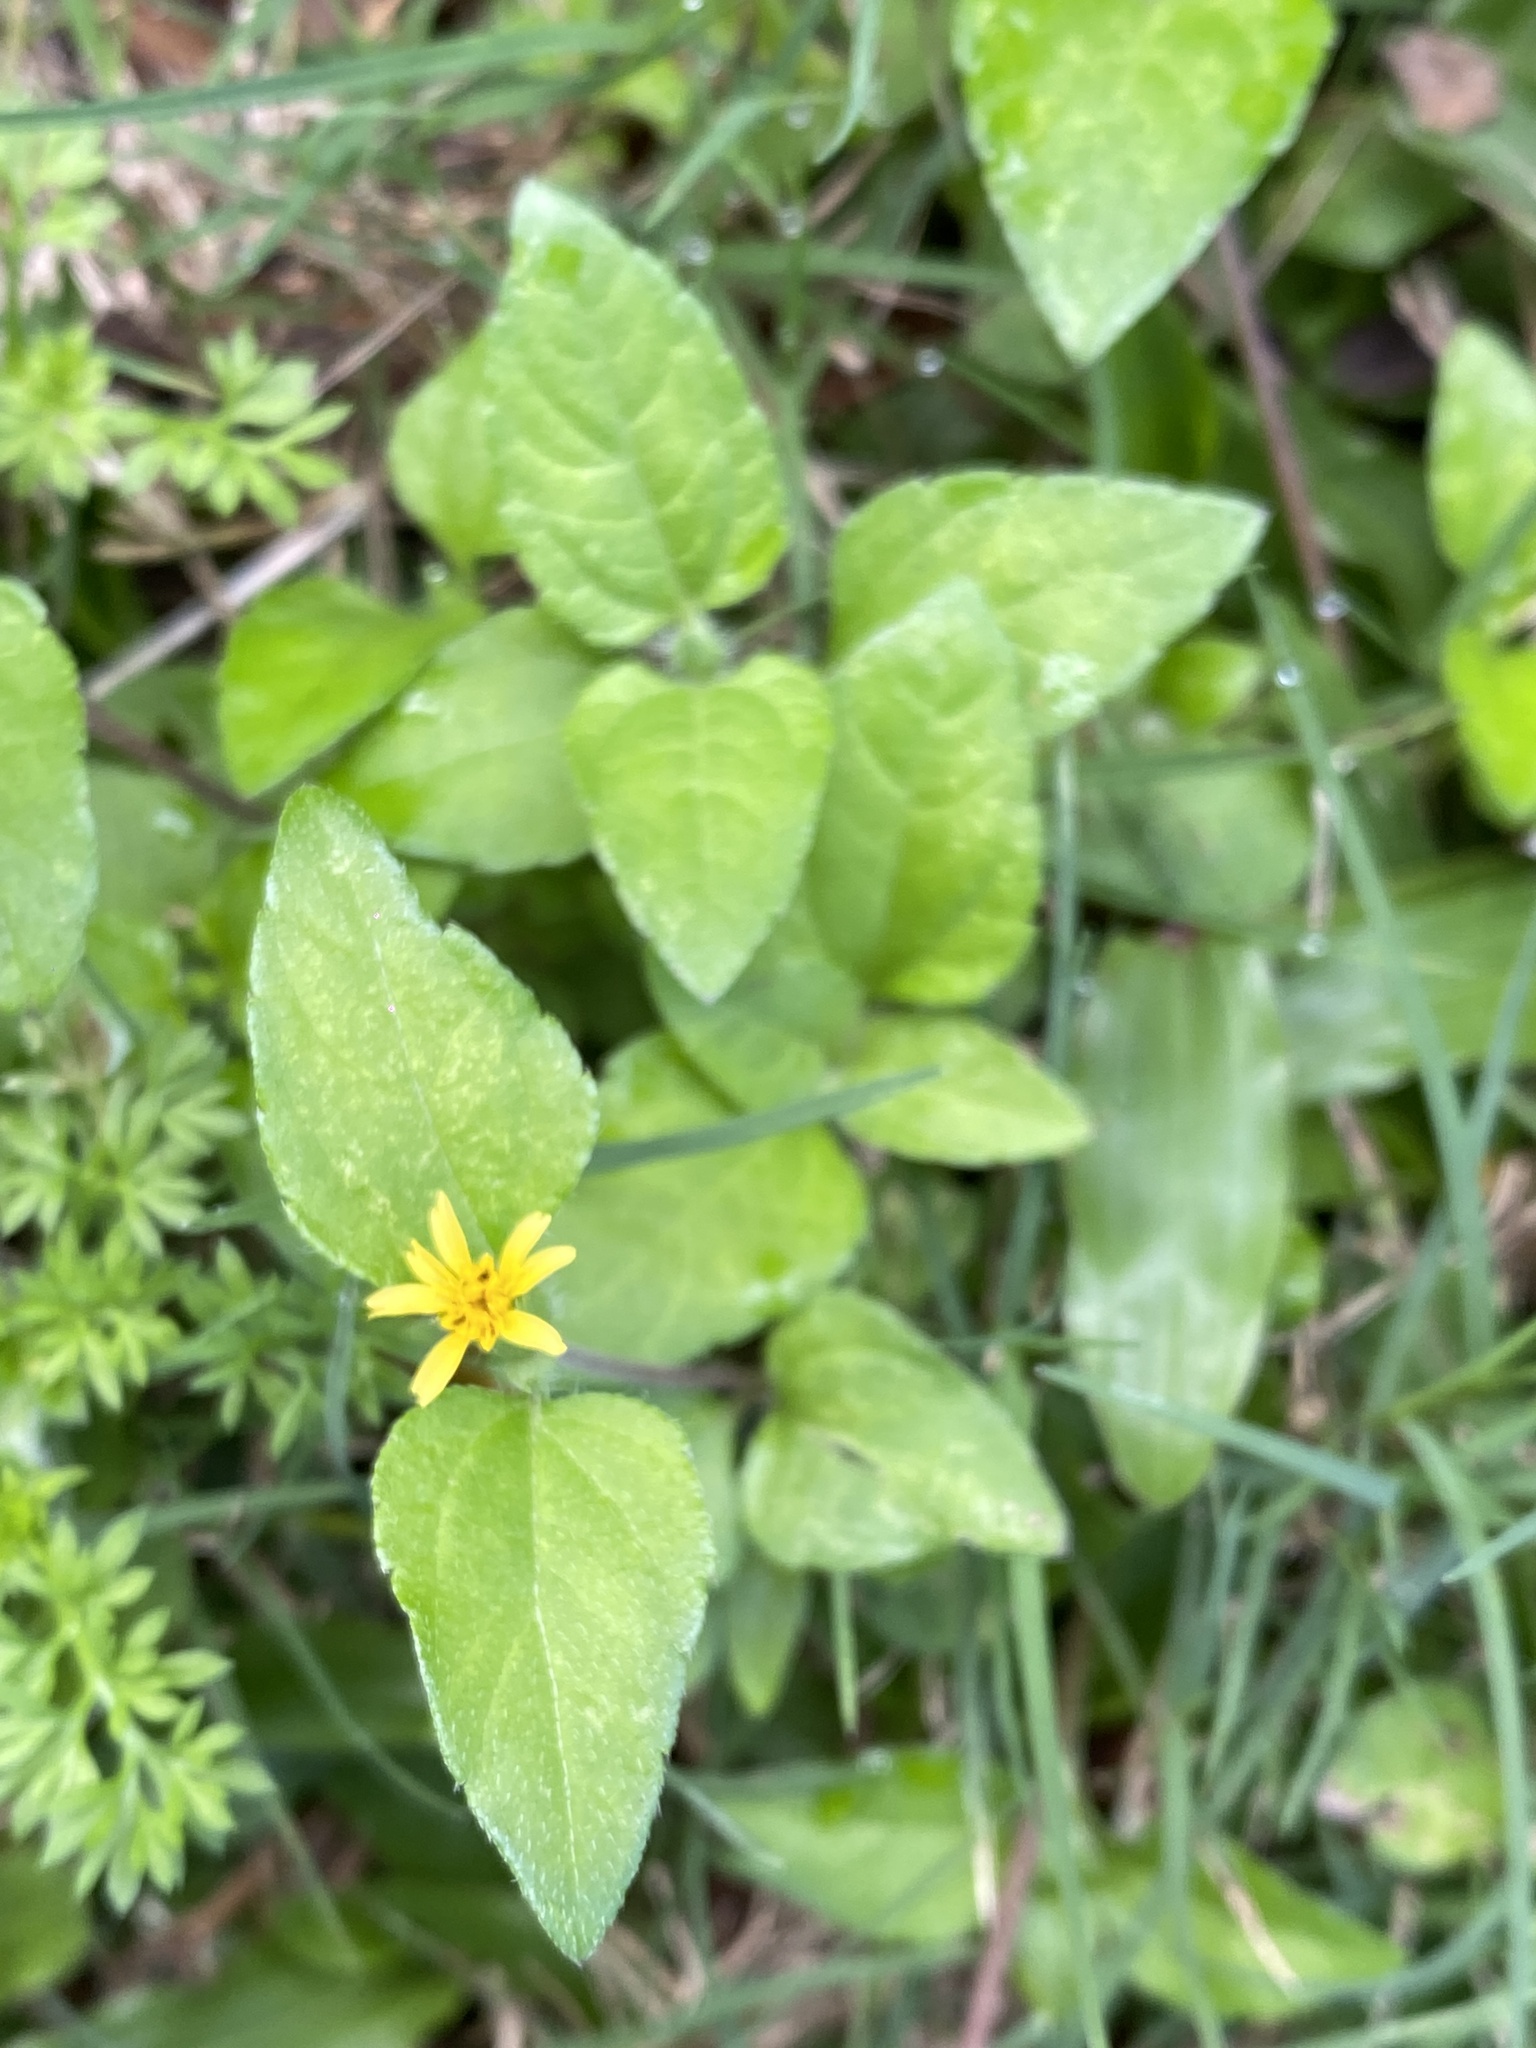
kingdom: Plantae
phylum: Tracheophyta
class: Magnoliopsida
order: Asterales
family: Asteraceae
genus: Calyptocarpus
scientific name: Calyptocarpus vialis
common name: Straggler daisy
